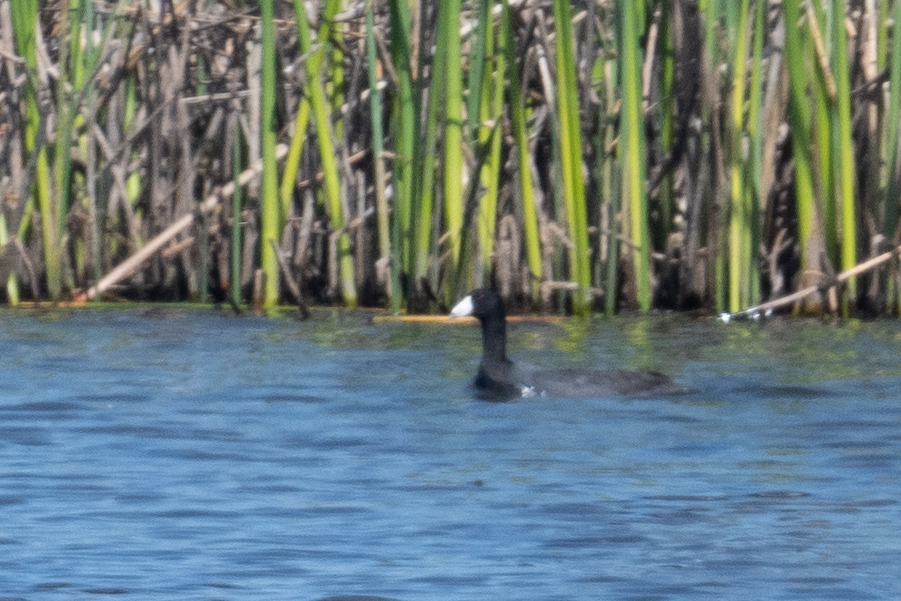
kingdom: Animalia
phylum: Chordata
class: Aves
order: Gruiformes
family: Rallidae
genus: Fulica
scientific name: Fulica americana
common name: American coot
